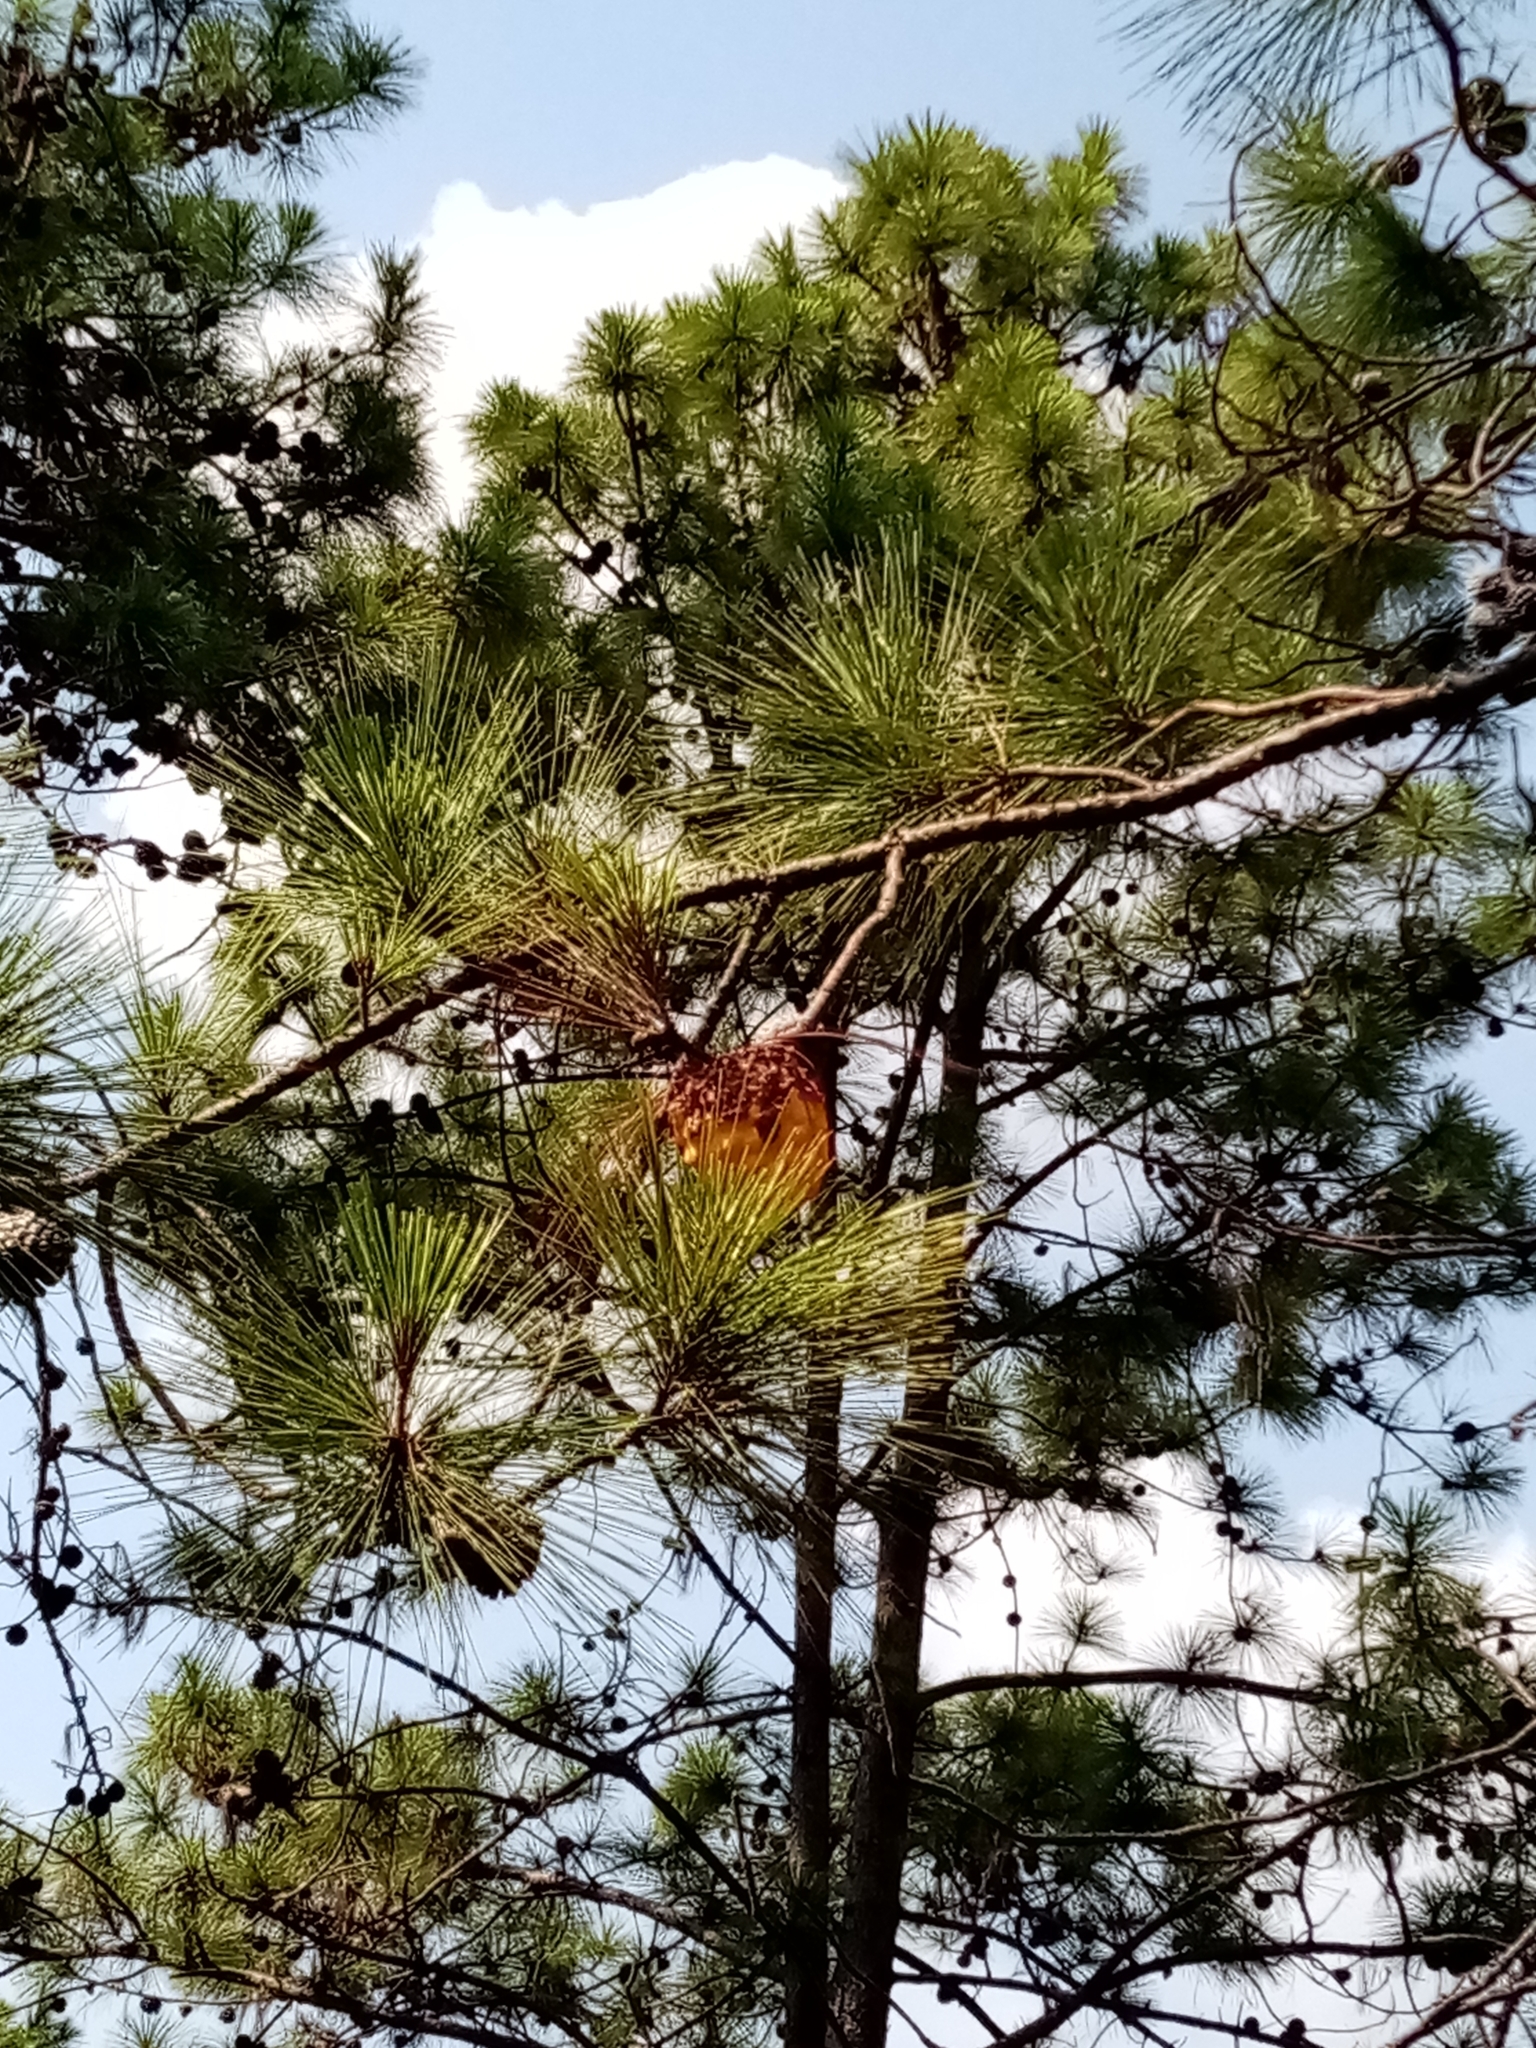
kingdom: Fungi
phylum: Basidiomycota
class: Pucciniomycetes
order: Pucciniales
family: Cronartiaceae
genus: Cronartium
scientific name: Cronartium conigenum
